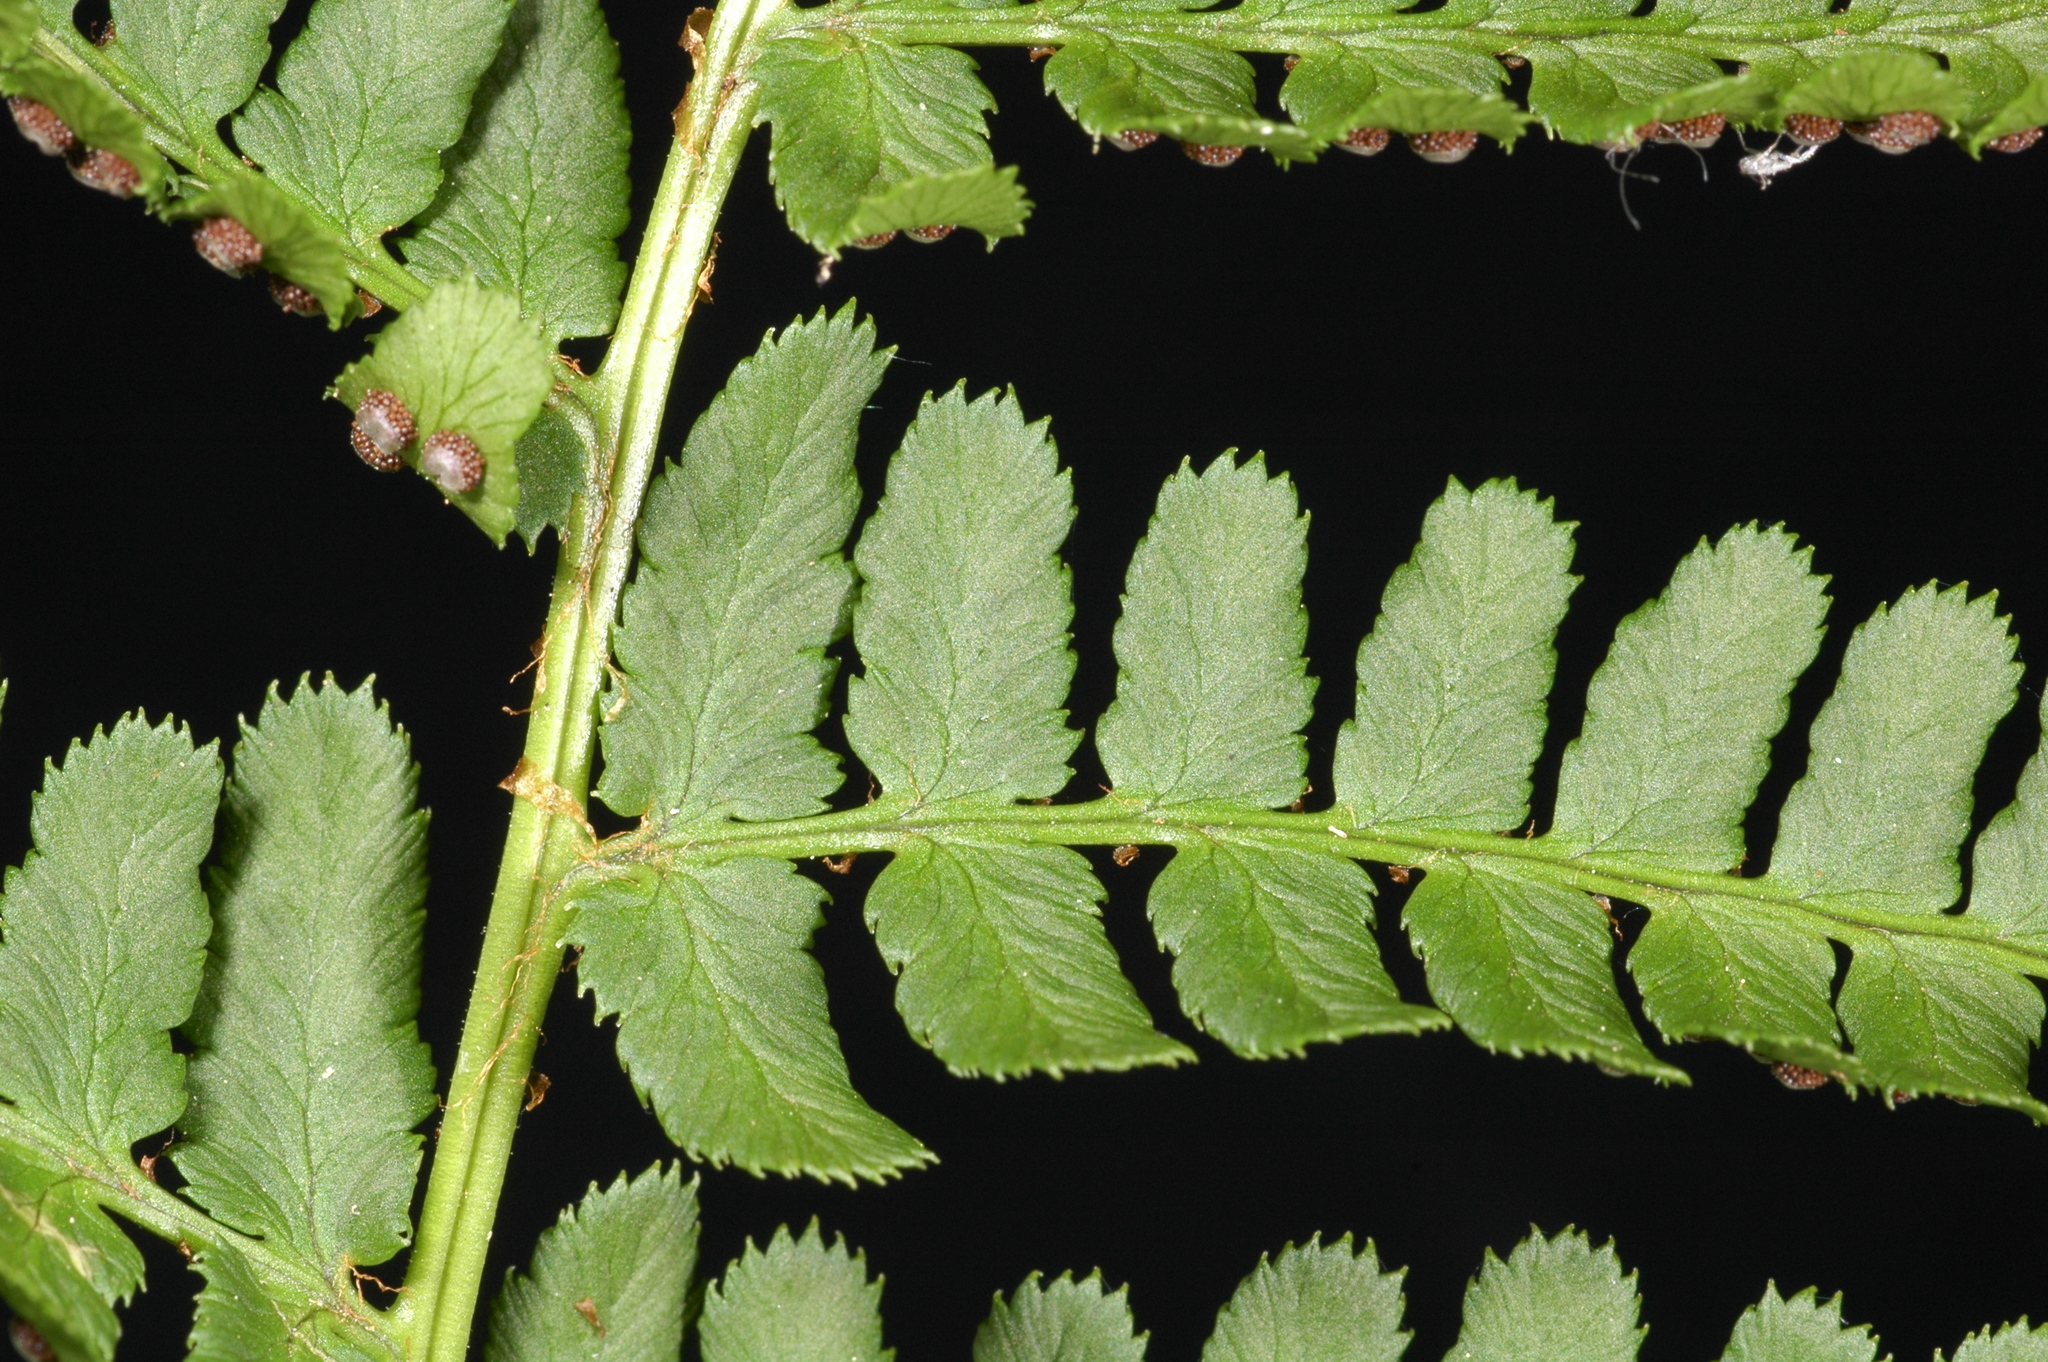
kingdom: Plantae
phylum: Tracheophyta
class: Polypodiopsida
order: Polypodiales
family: Dryopteridaceae
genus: Dryopteris
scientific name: Dryopteris arguta
